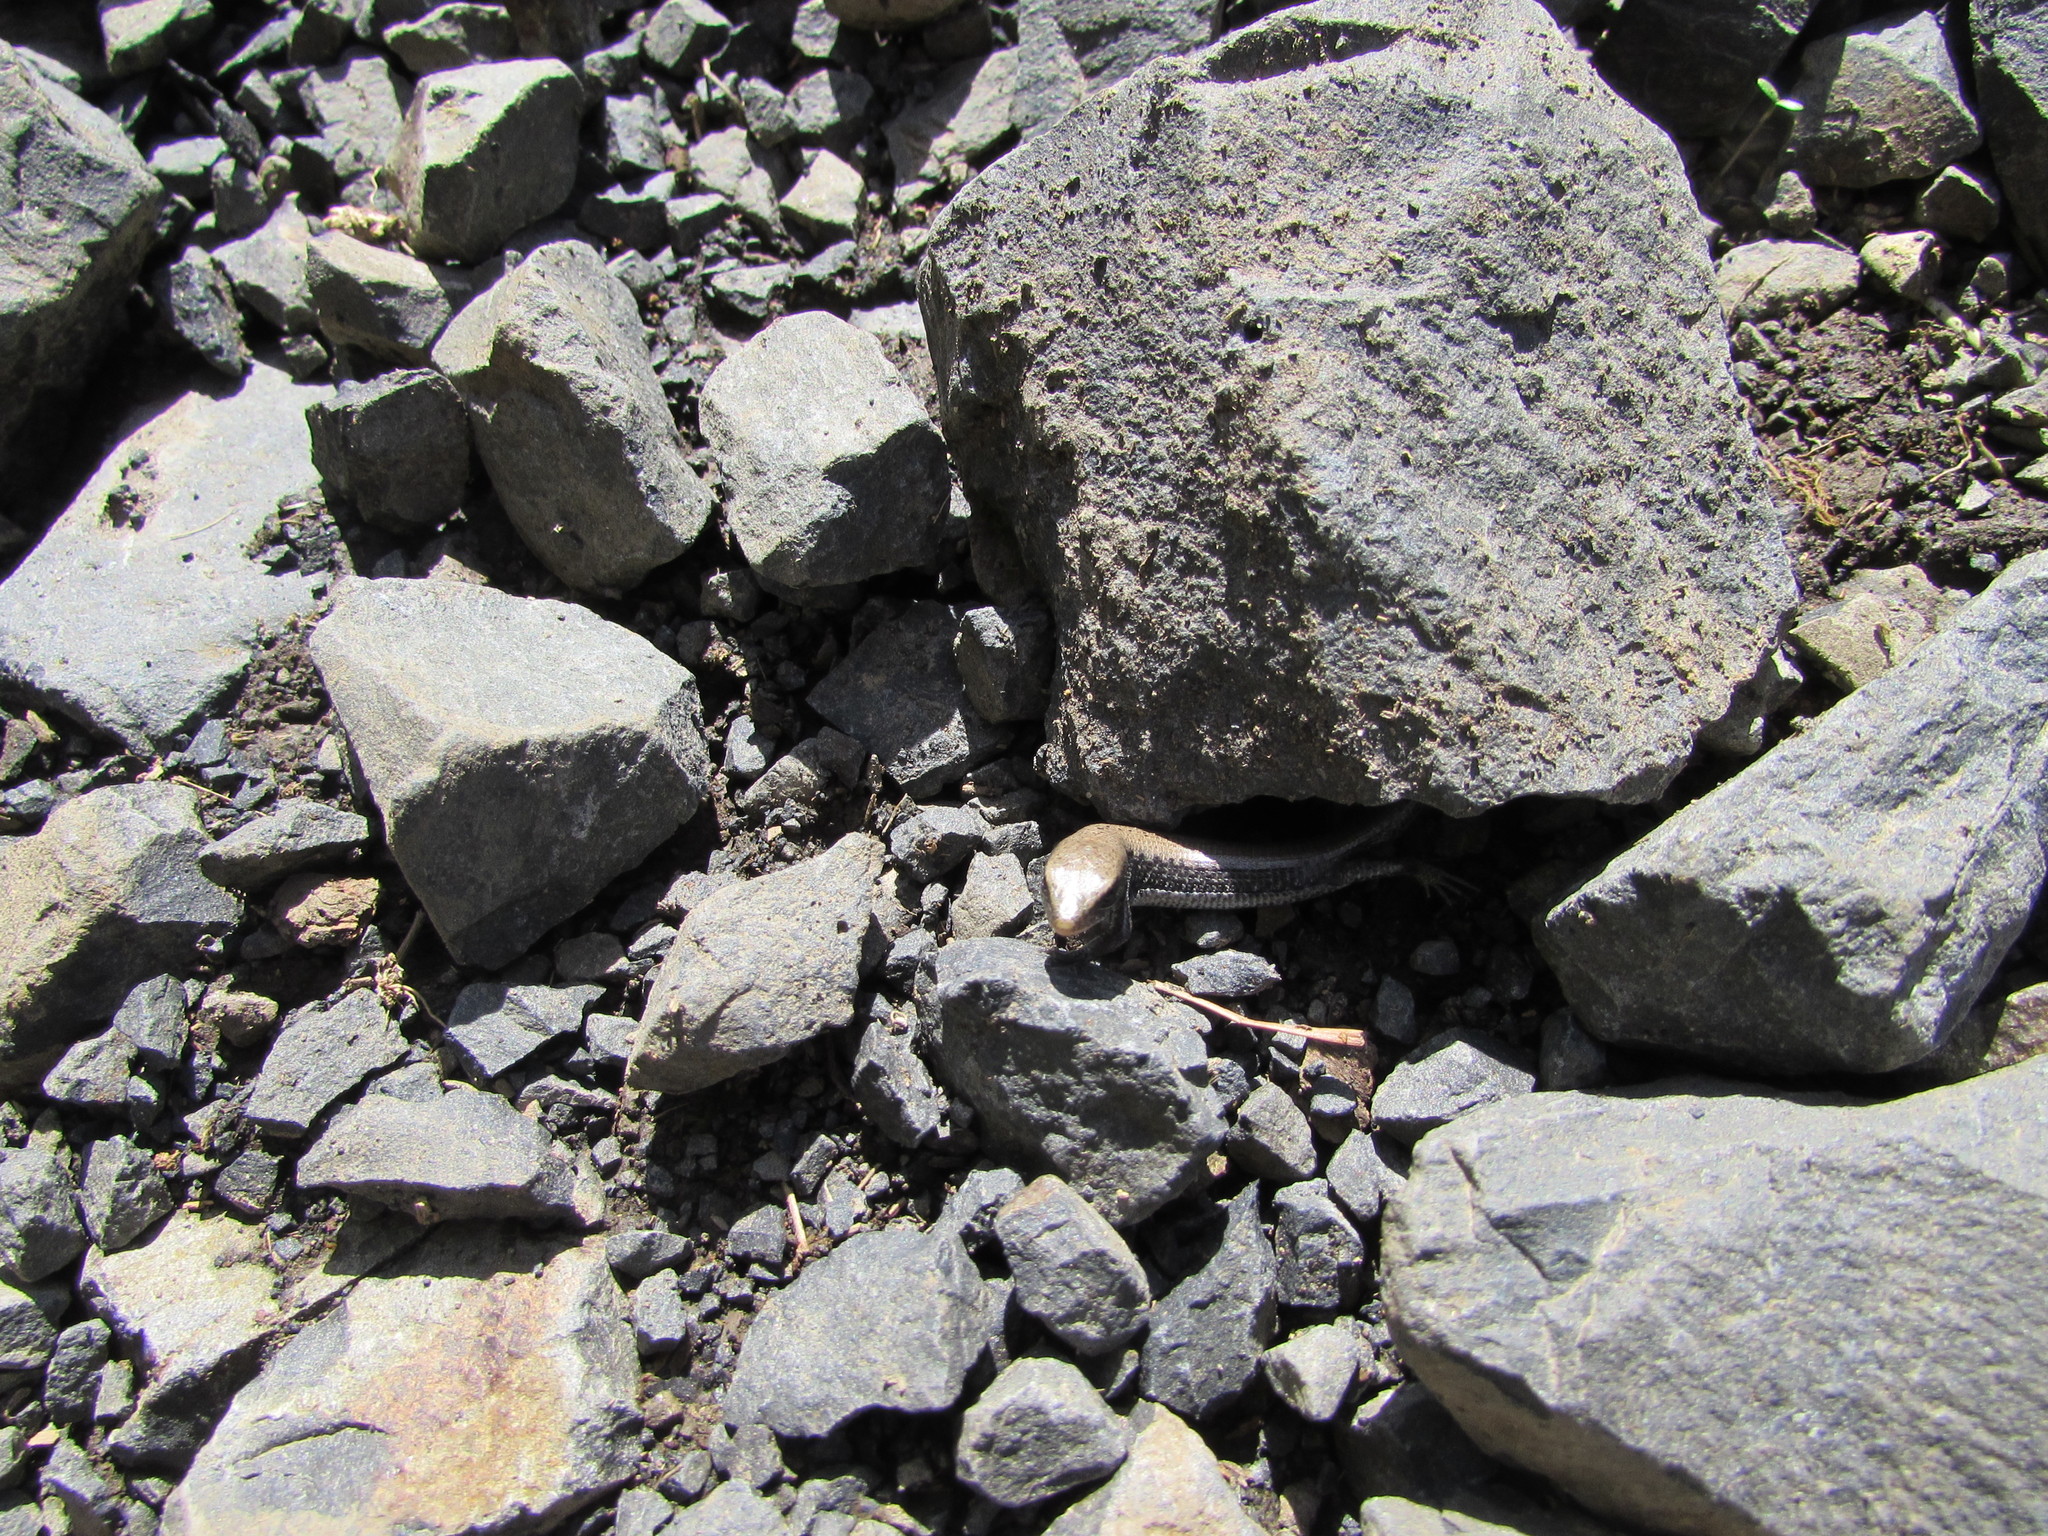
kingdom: Animalia
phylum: Chordata
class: Squamata
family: Anguidae
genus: Elgaria
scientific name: Elgaria coerulea
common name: Northern alligator lizard
